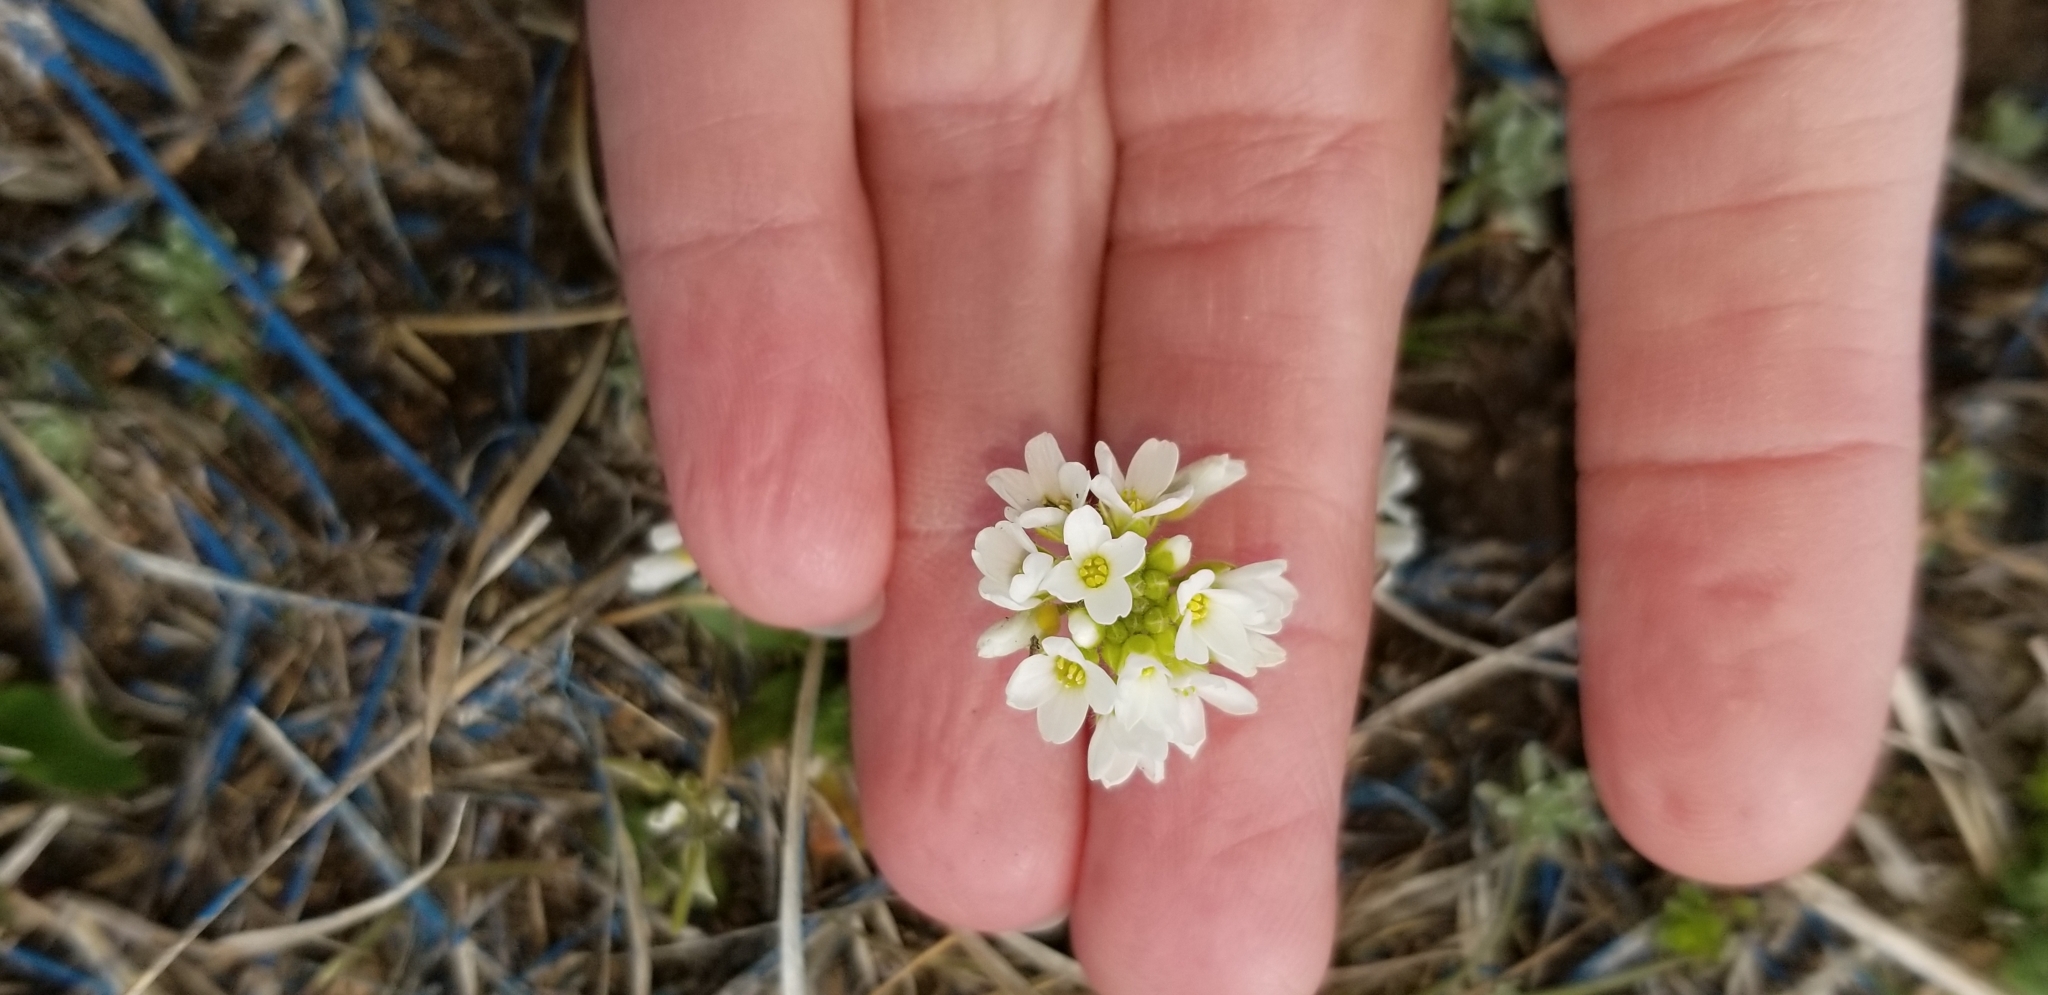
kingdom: Plantae
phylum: Tracheophyta
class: Magnoliopsida
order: Brassicales
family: Brassicaceae
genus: Tomostima
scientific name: Tomostima cuneifolia
